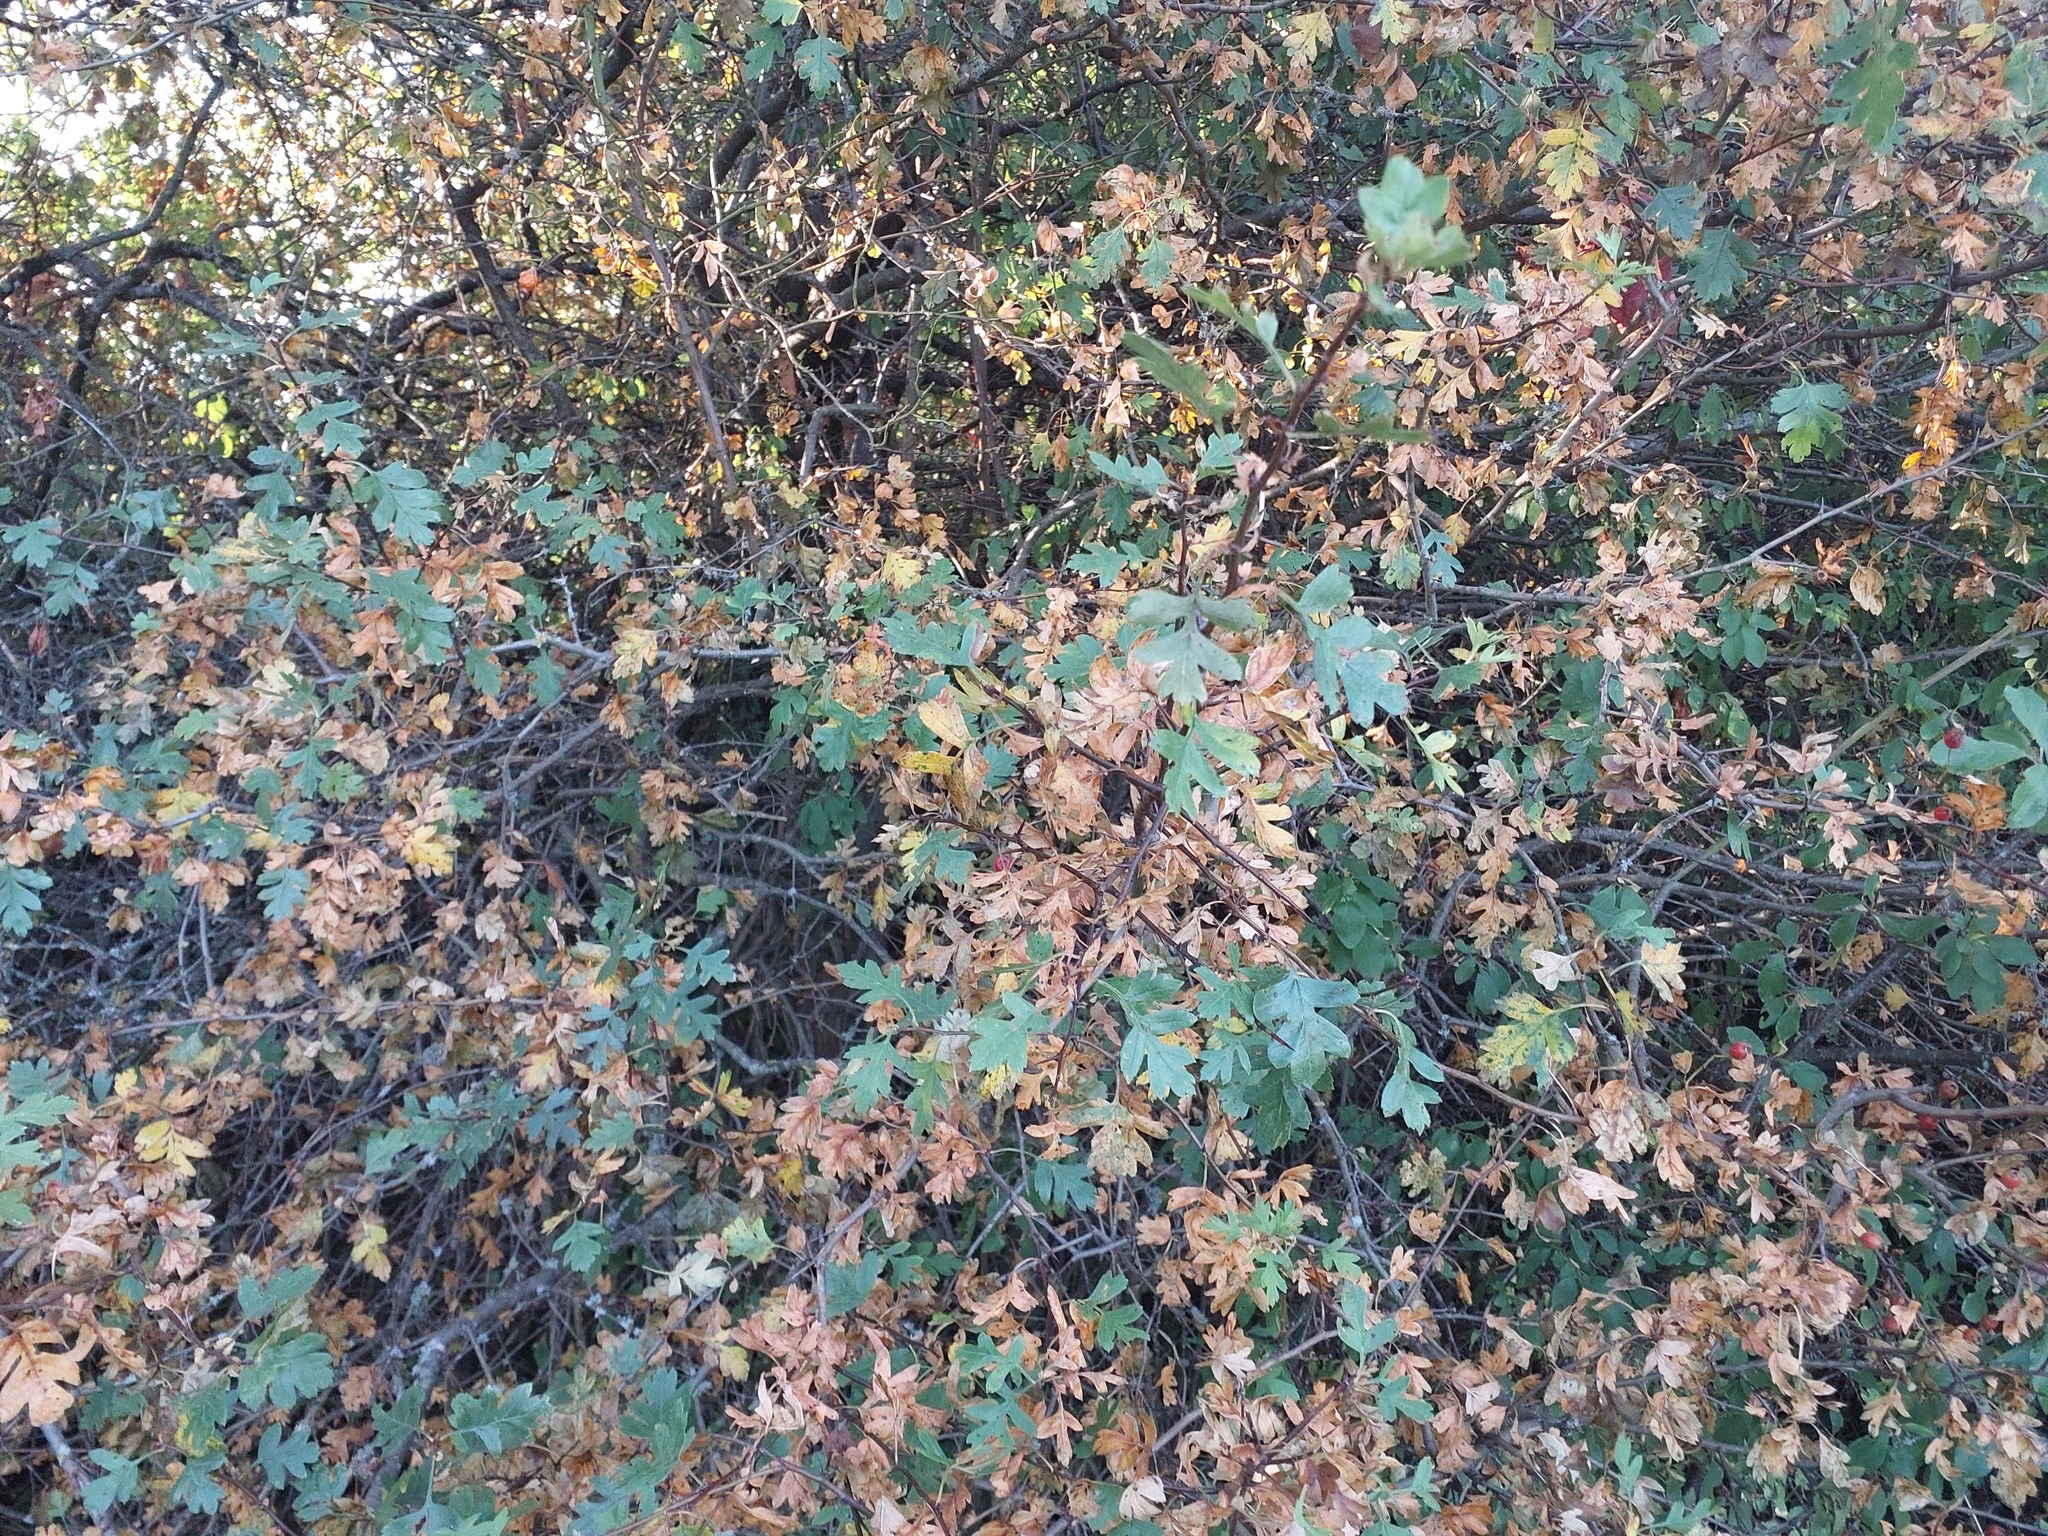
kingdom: Plantae
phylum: Tracheophyta
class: Magnoliopsida
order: Rosales
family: Rosaceae
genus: Crataegus
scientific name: Crataegus monogyna
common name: Hawthorn
